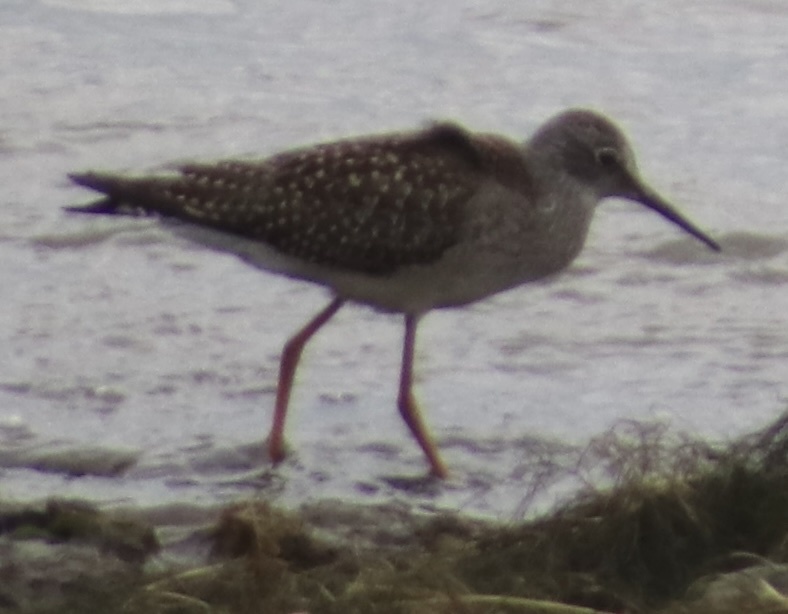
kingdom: Animalia
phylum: Chordata
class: Aves
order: Charadriiformes
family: Scolopacidae
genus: Tringa
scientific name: Tringa melanoleuca
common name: Greater yellowlegs
